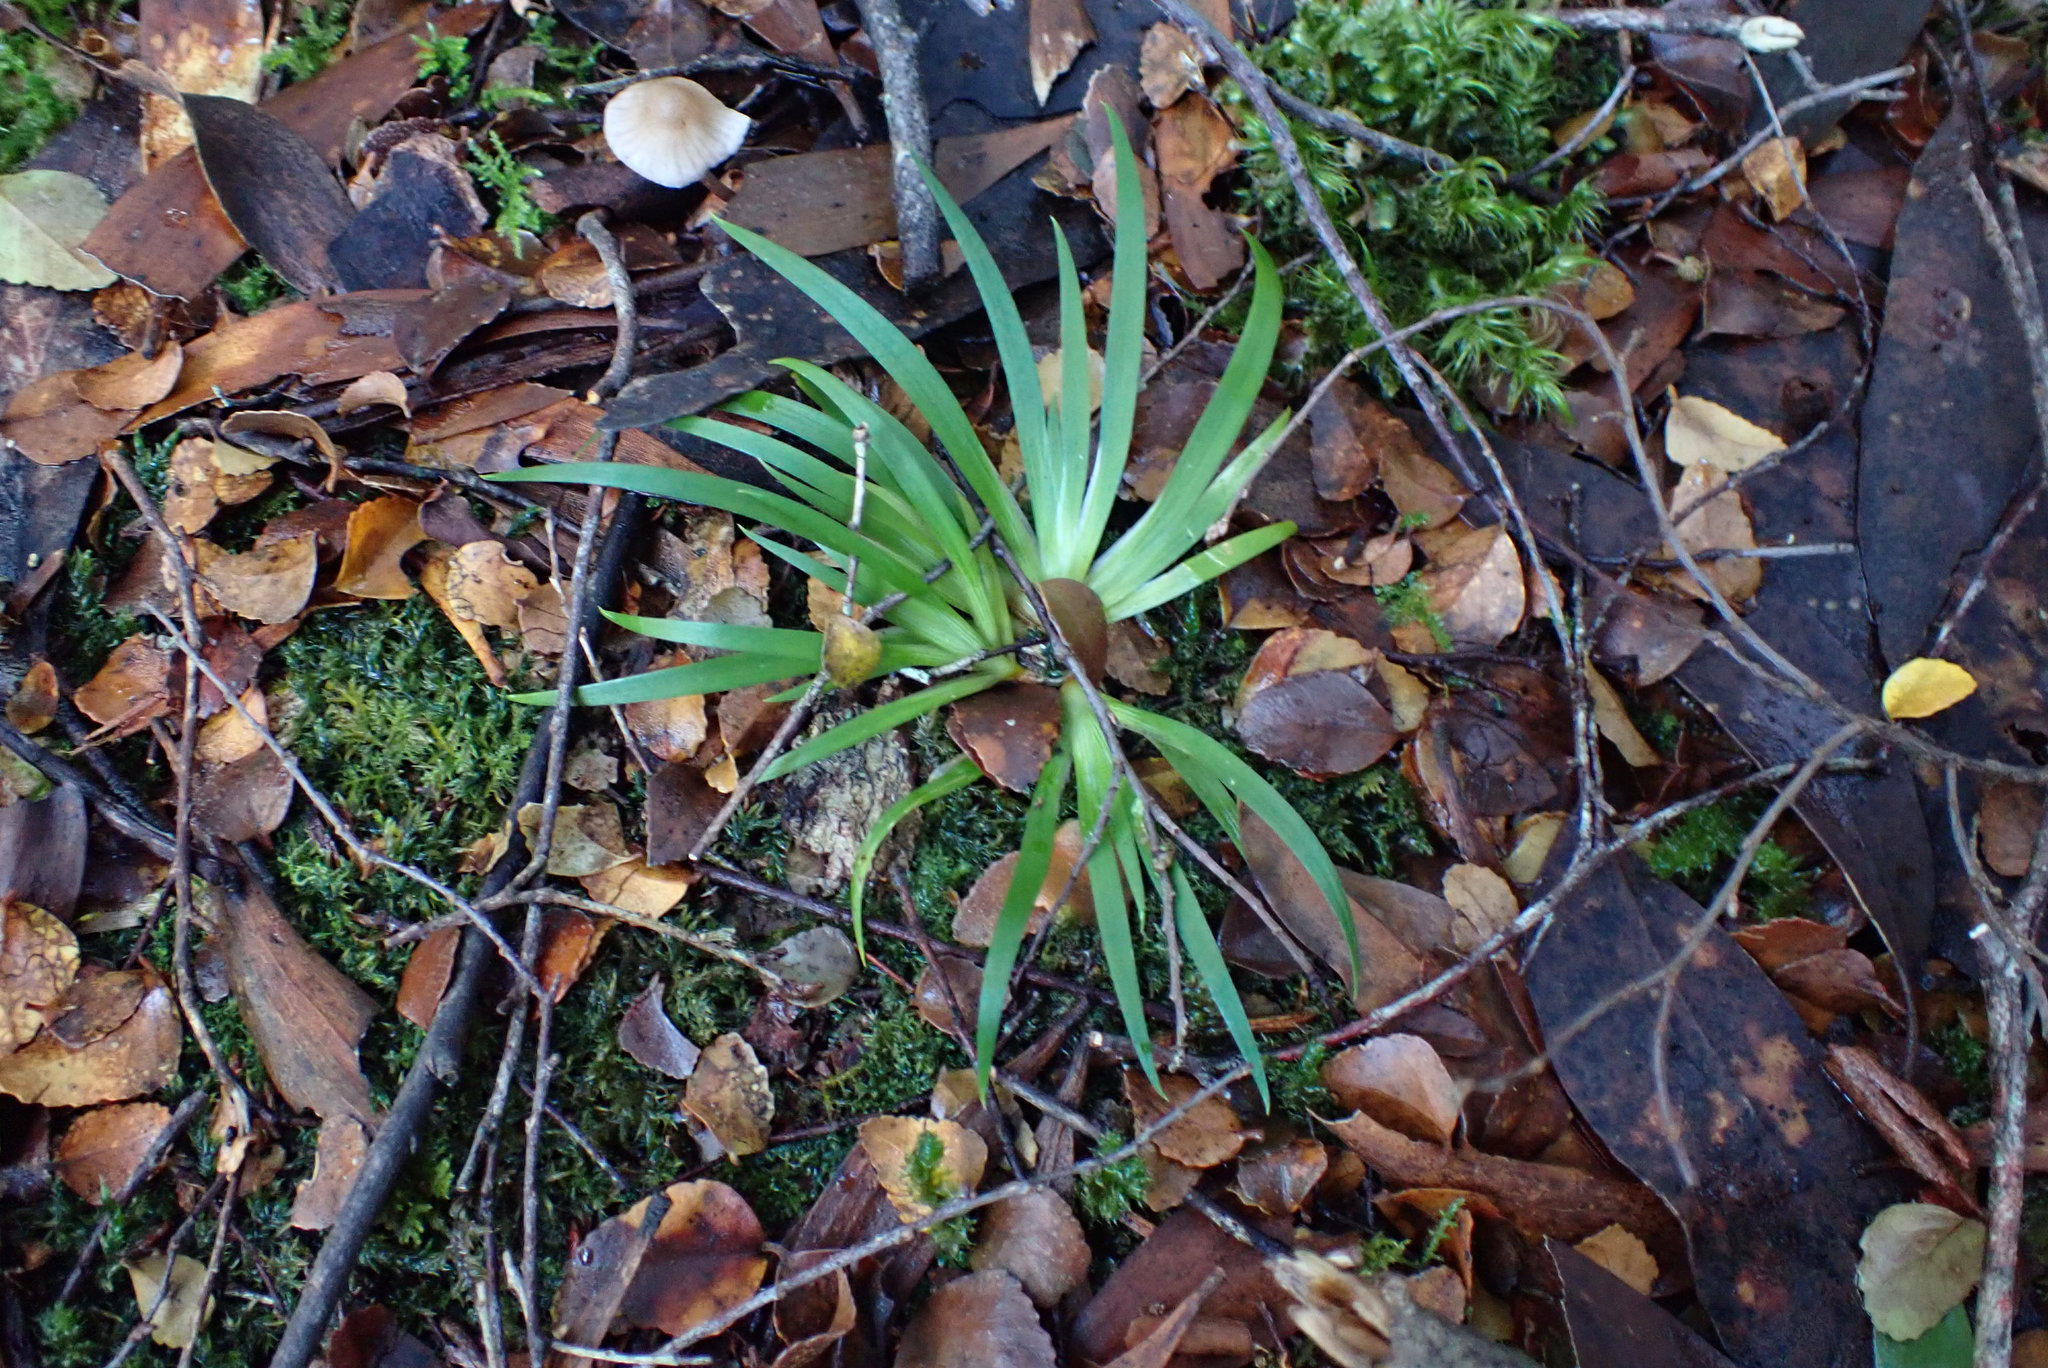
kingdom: Plantae
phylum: Tracheophyta
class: Liliopsida
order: Asparagales
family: Iridaceae
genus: Libertia
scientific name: Libertia pulchella
